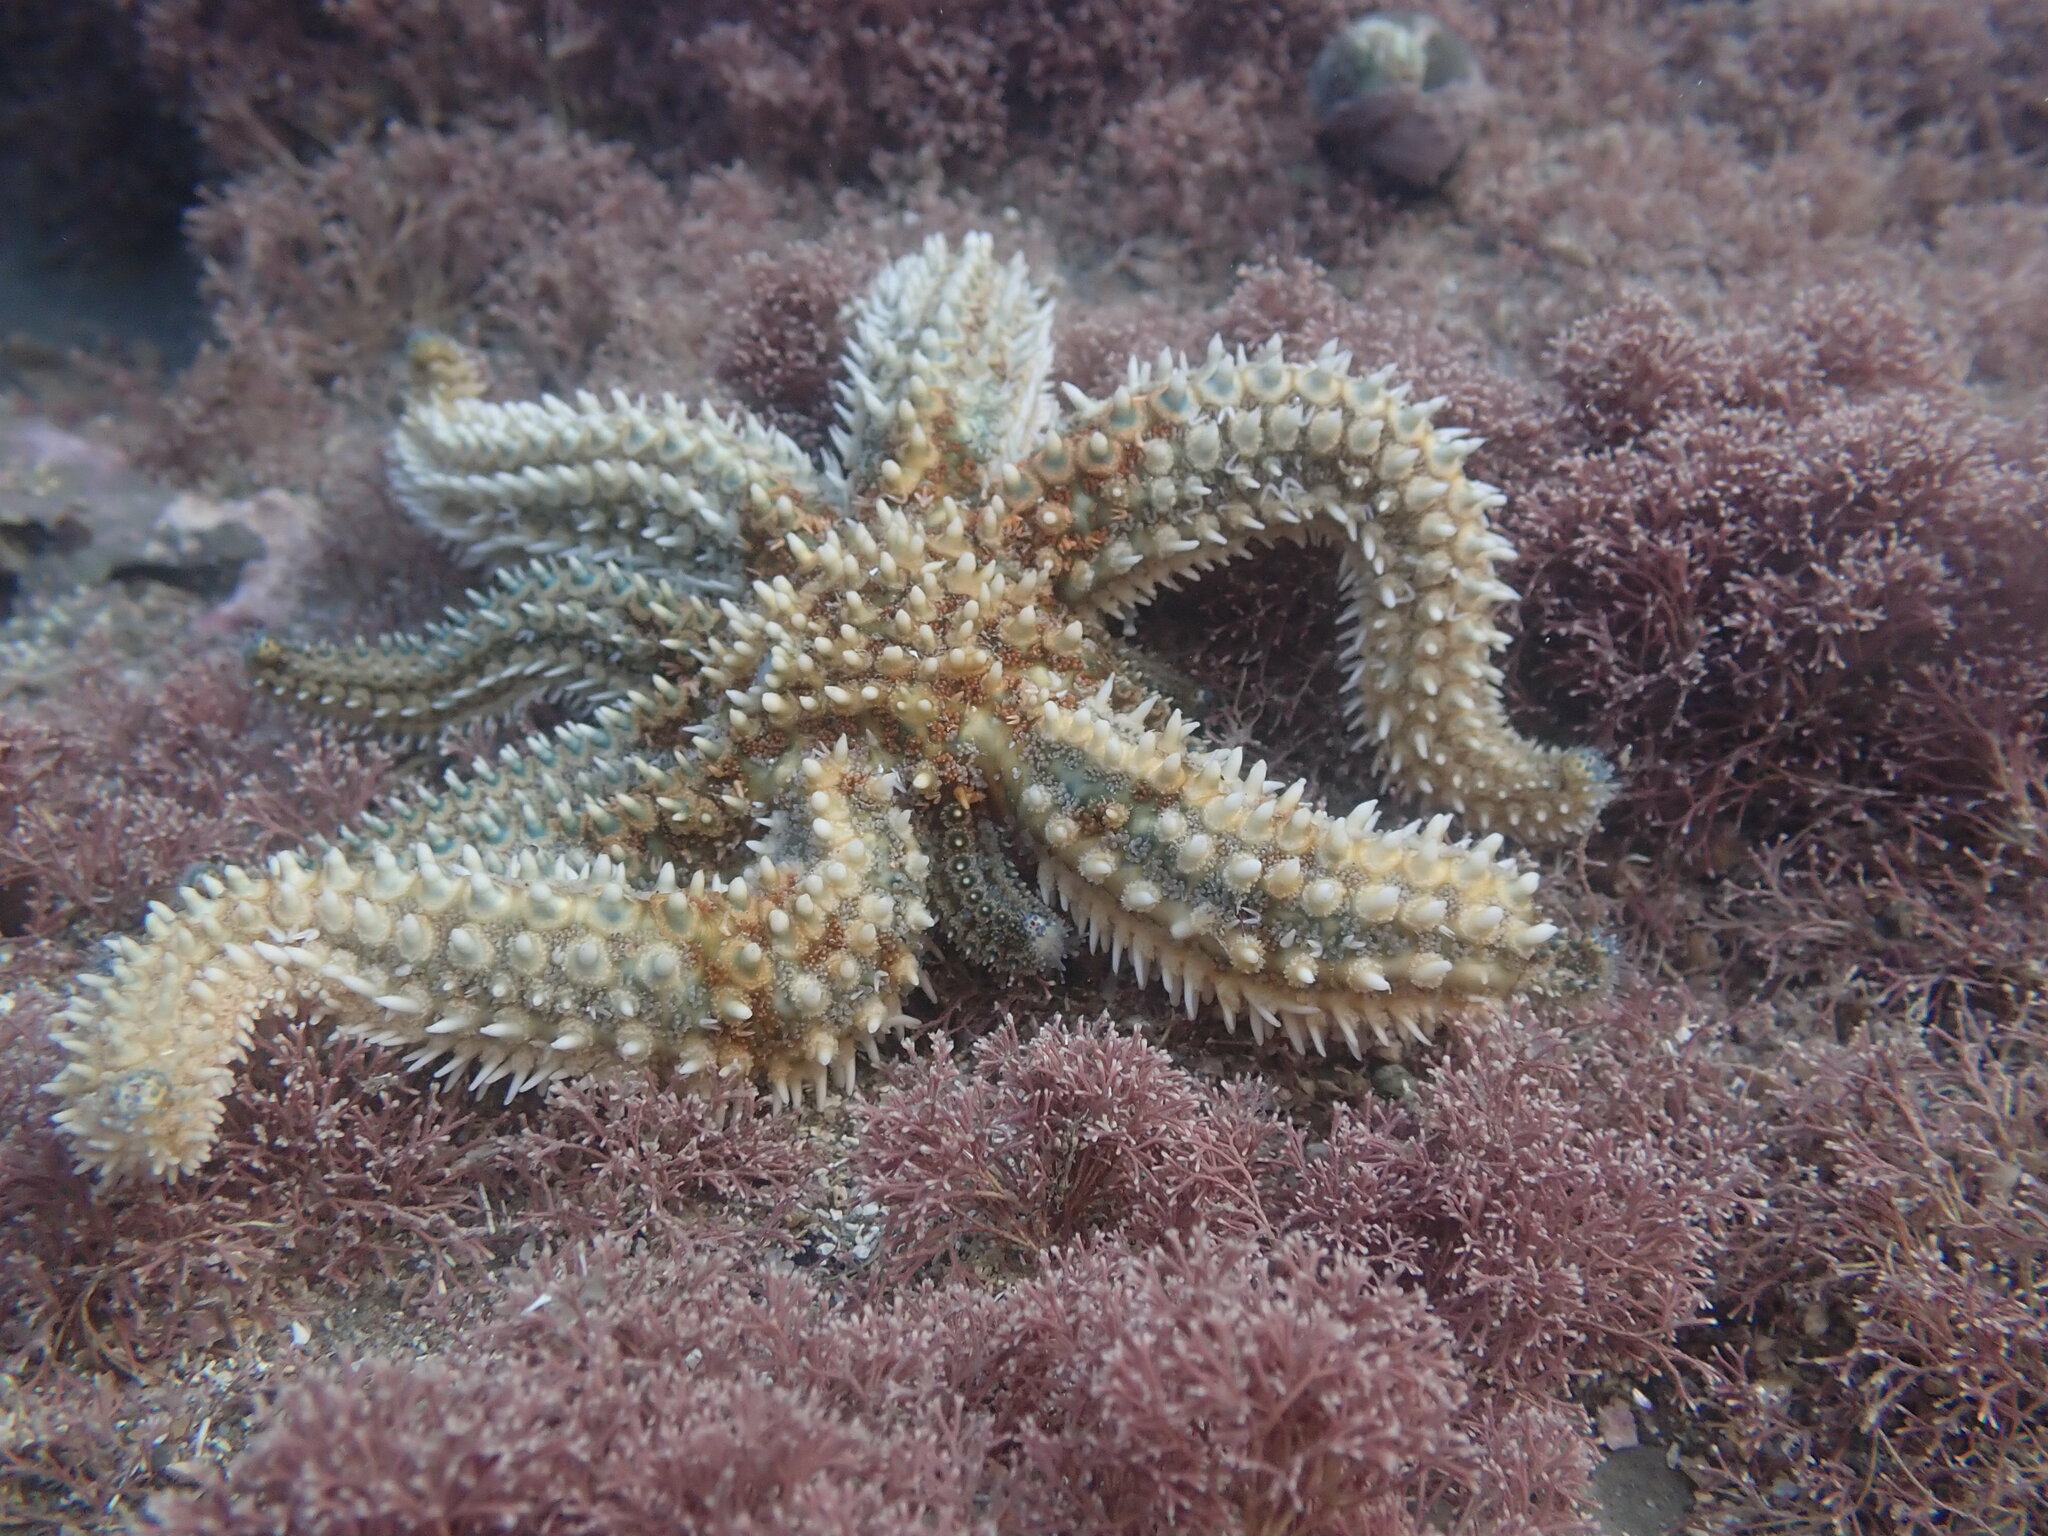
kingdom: Animalia
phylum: Echinodermata
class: Asteroidea
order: Forcipulatida
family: Asteriidae
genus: Coscinasterias
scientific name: Coscinasterias muricata
